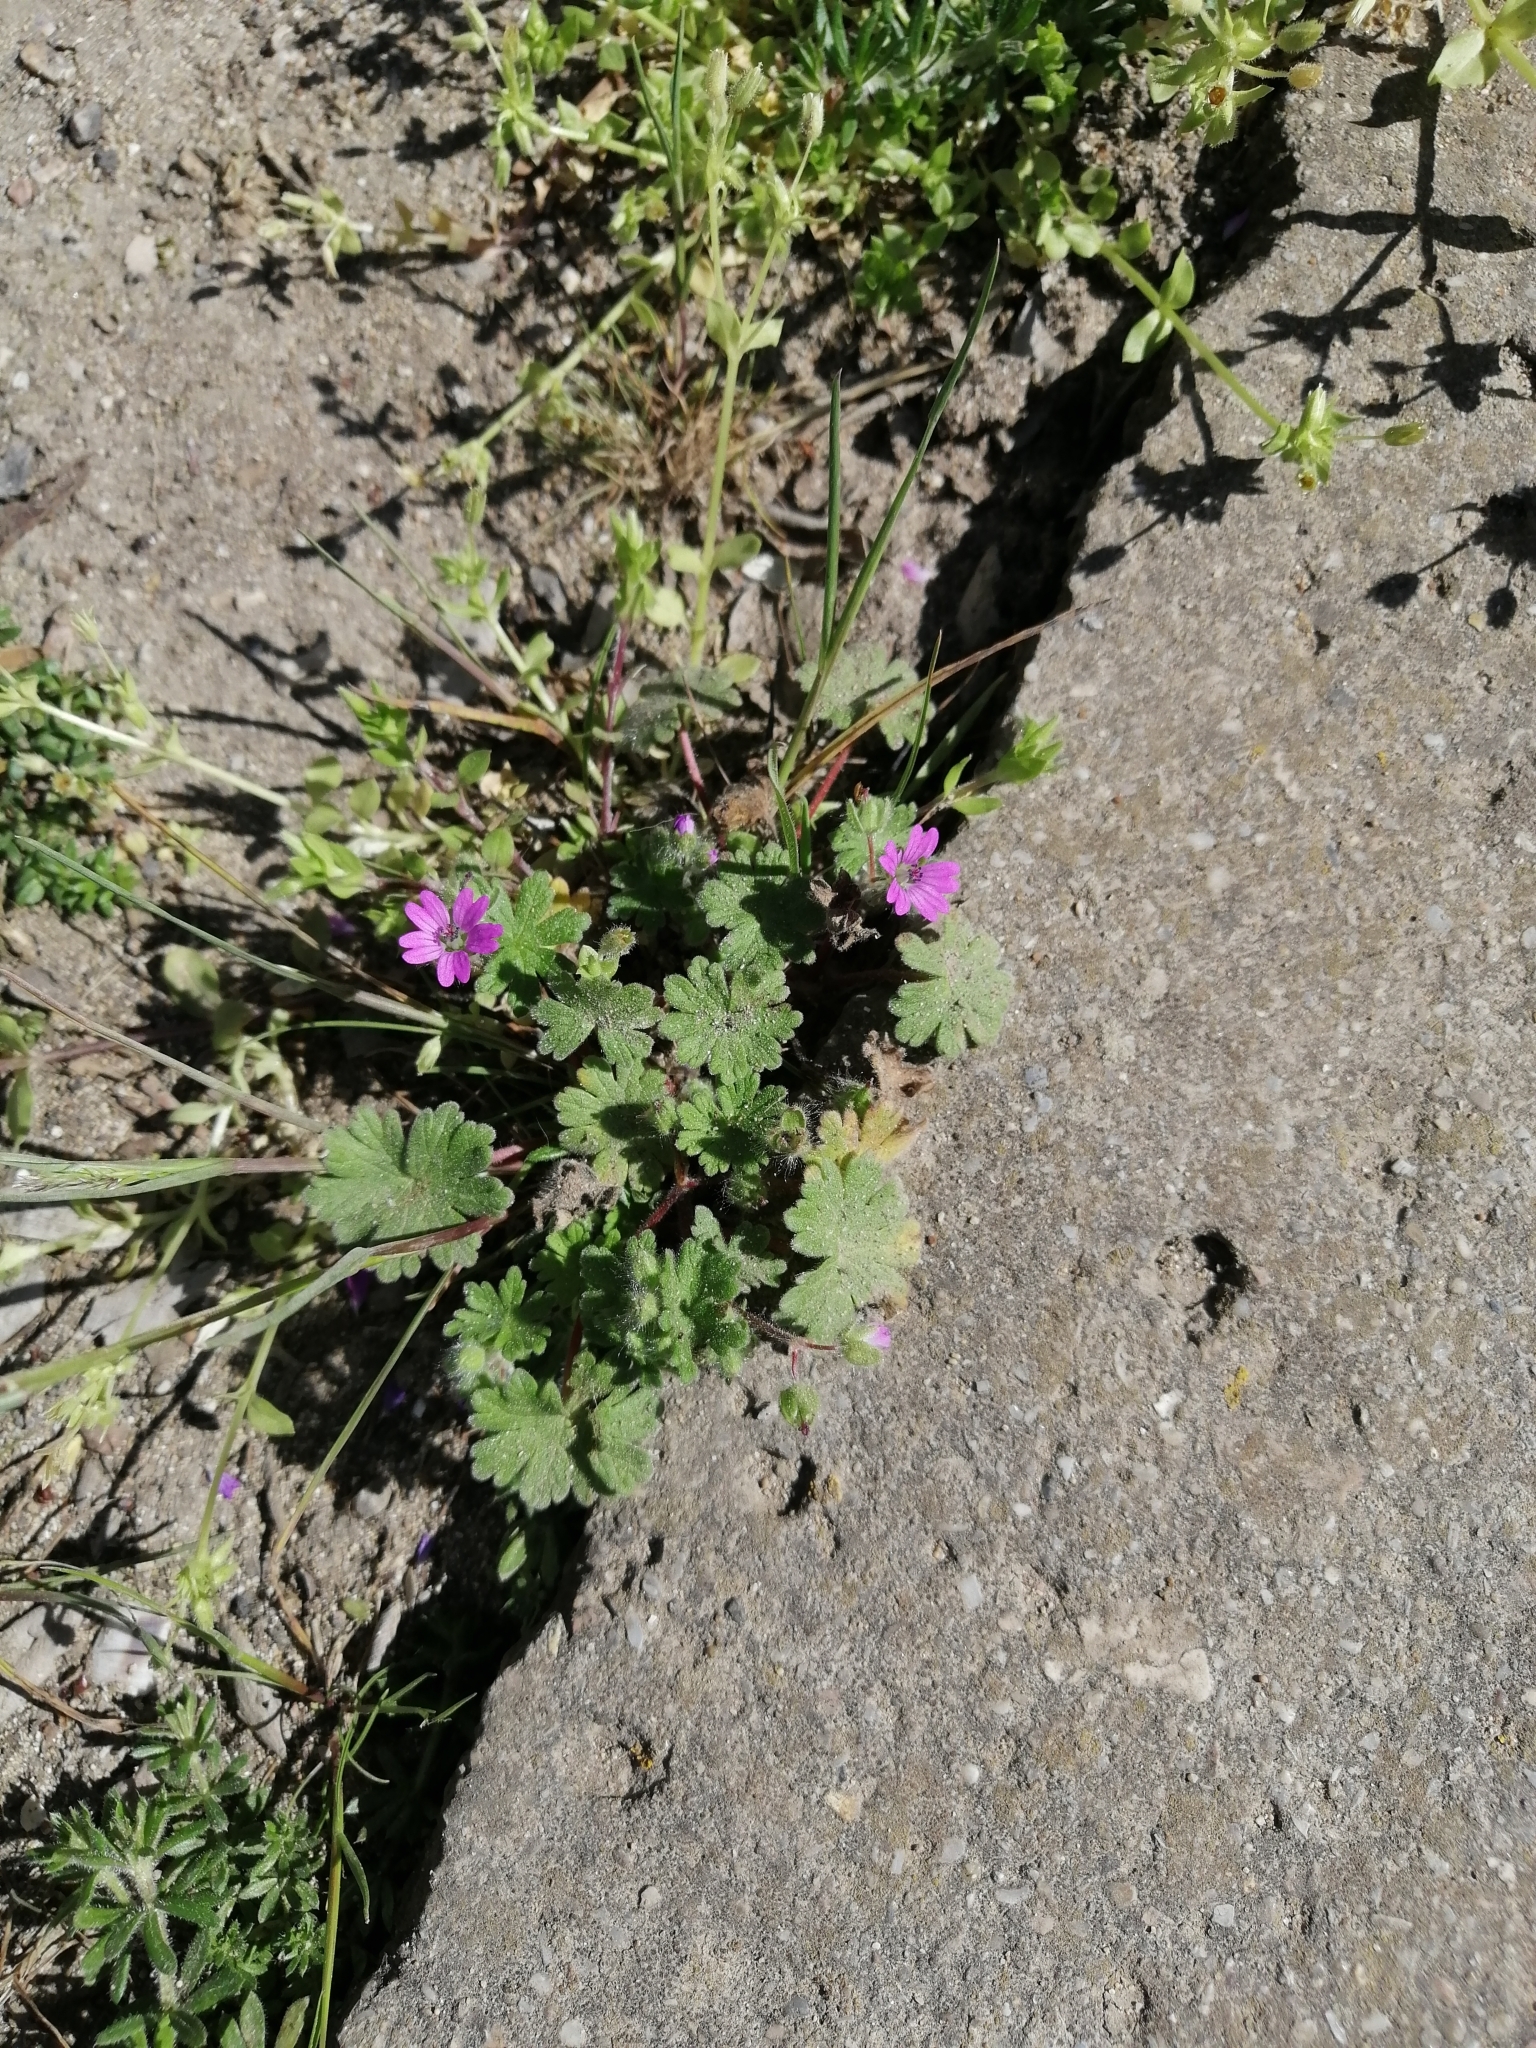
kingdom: Plantae
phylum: Tracheophyta
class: Magnoliopsida
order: Geraniales
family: Geraniaceae
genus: Geranium
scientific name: Geranium molle
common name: Dove's-foot crane's-bill
